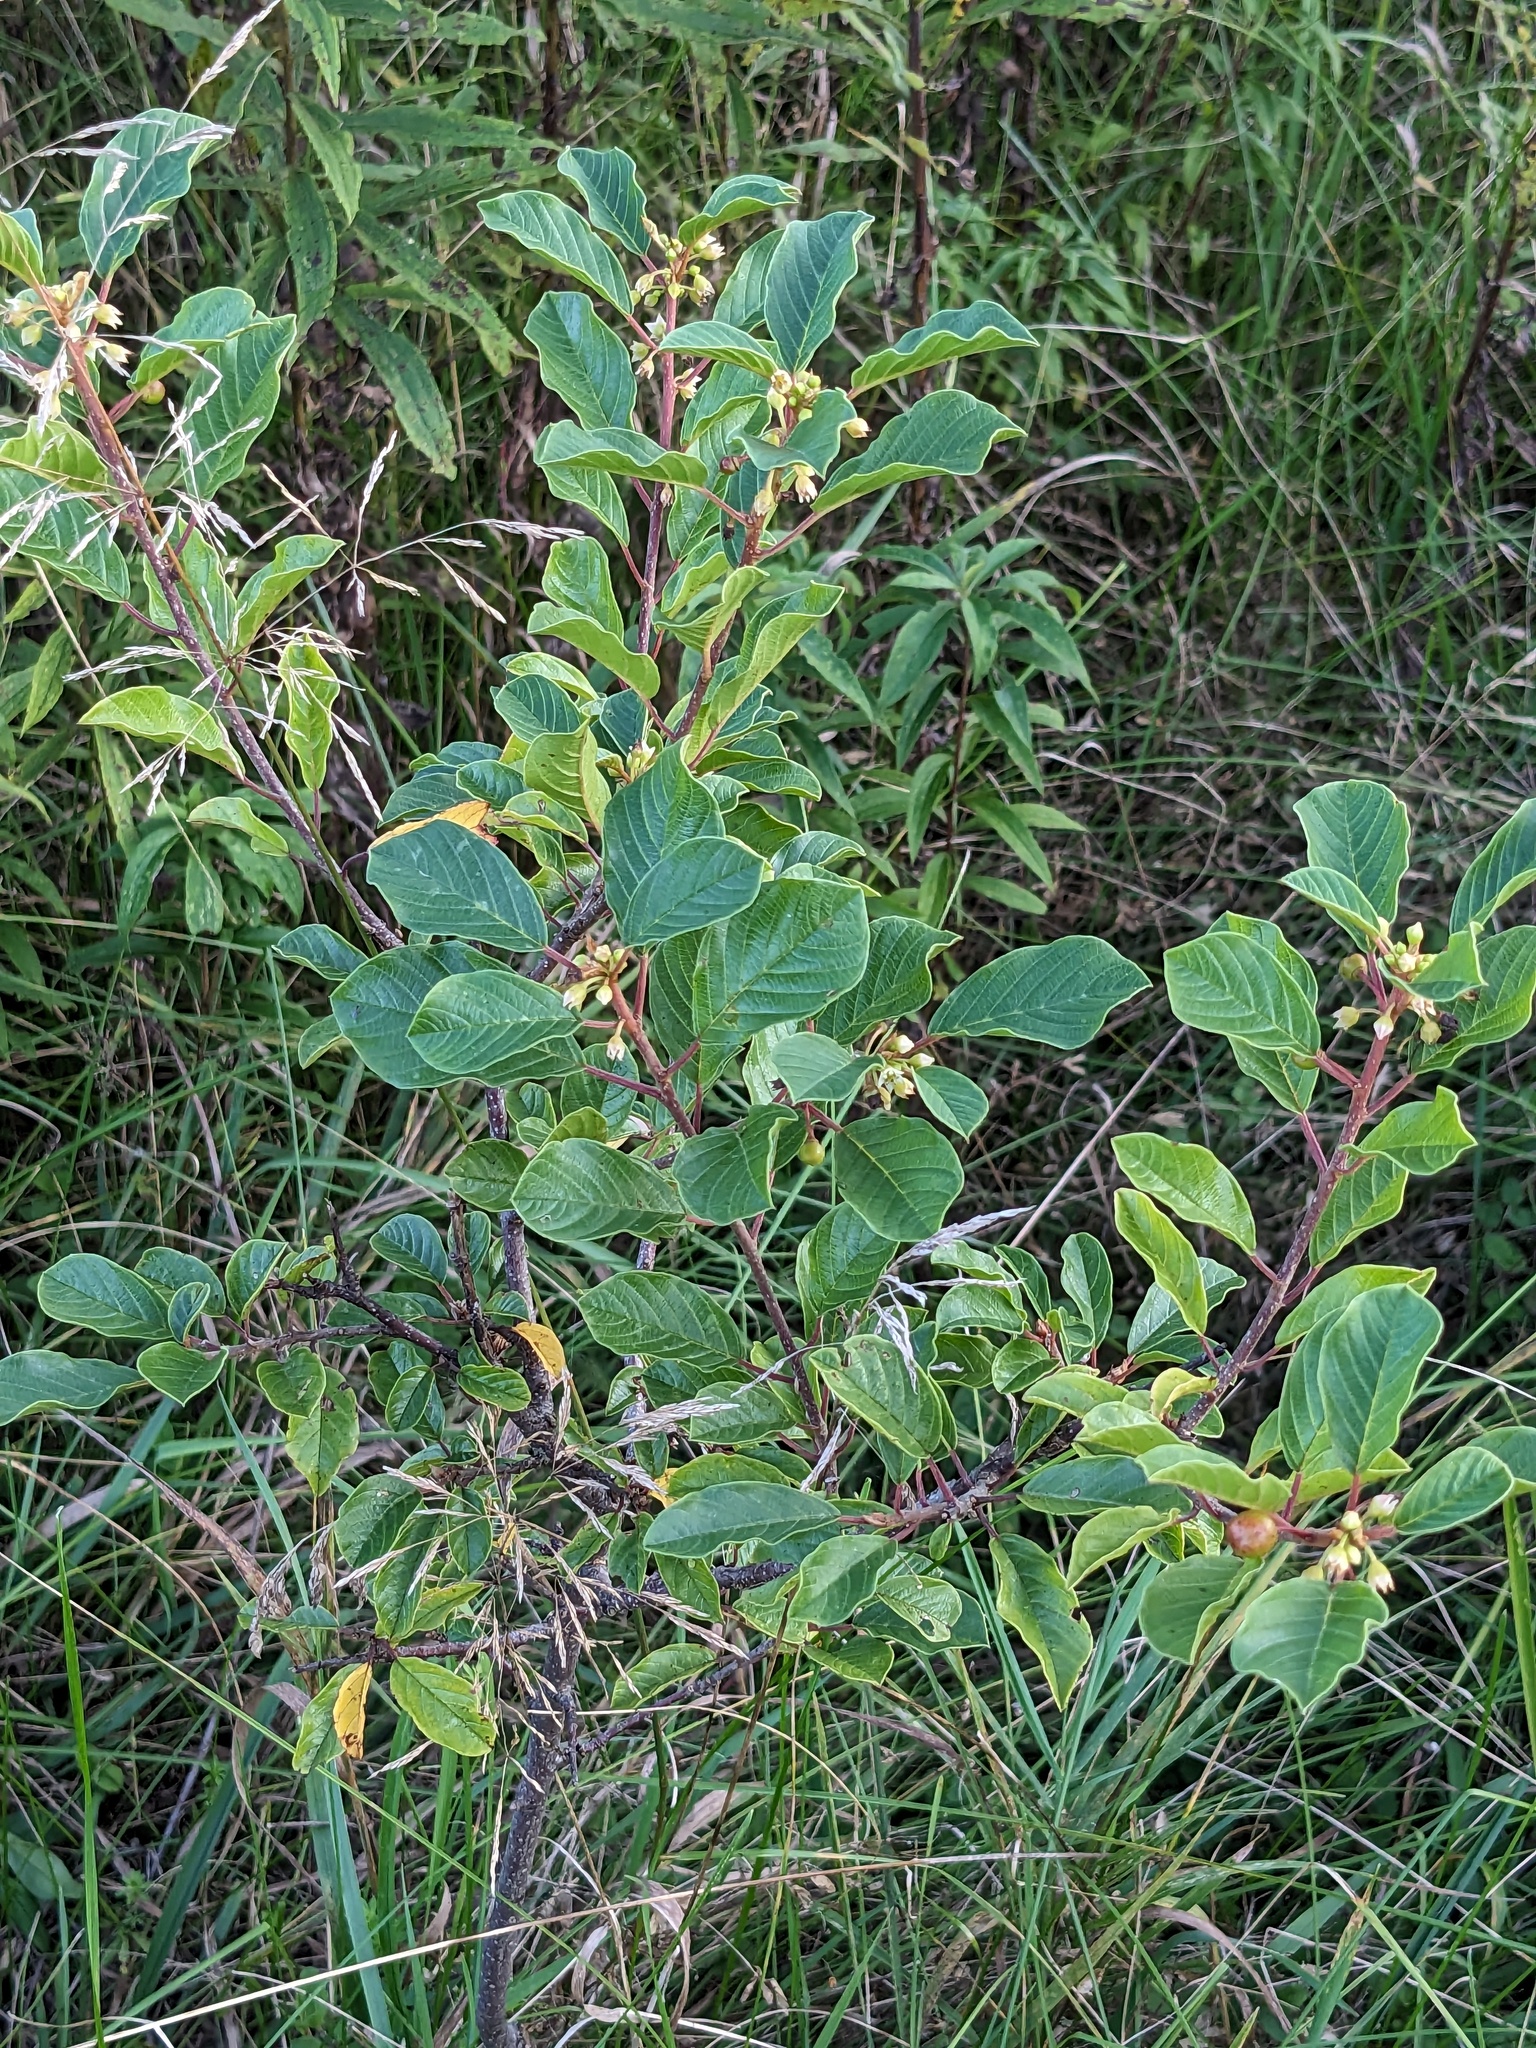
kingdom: Plantae
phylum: Tracheophyta
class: Magnoliopsida
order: Rosales
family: Rhamnaceae
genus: Frangula
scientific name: Frangula alnus
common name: Alder buckthorn
